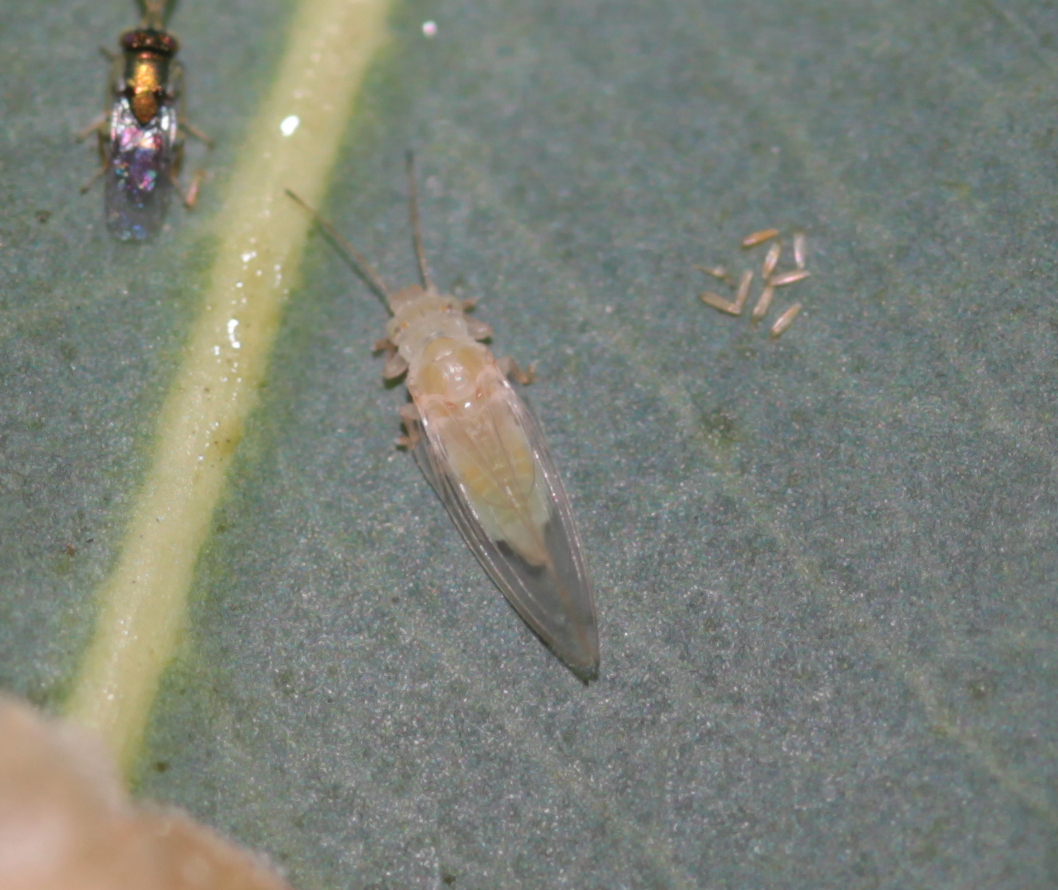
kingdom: Animalia
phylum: Arthropoda
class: Insecta
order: Hemiptera
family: Aphalaridae
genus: Glycaspis
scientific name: Glycaspis brimblecombei
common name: Red gum lerp psyllid
